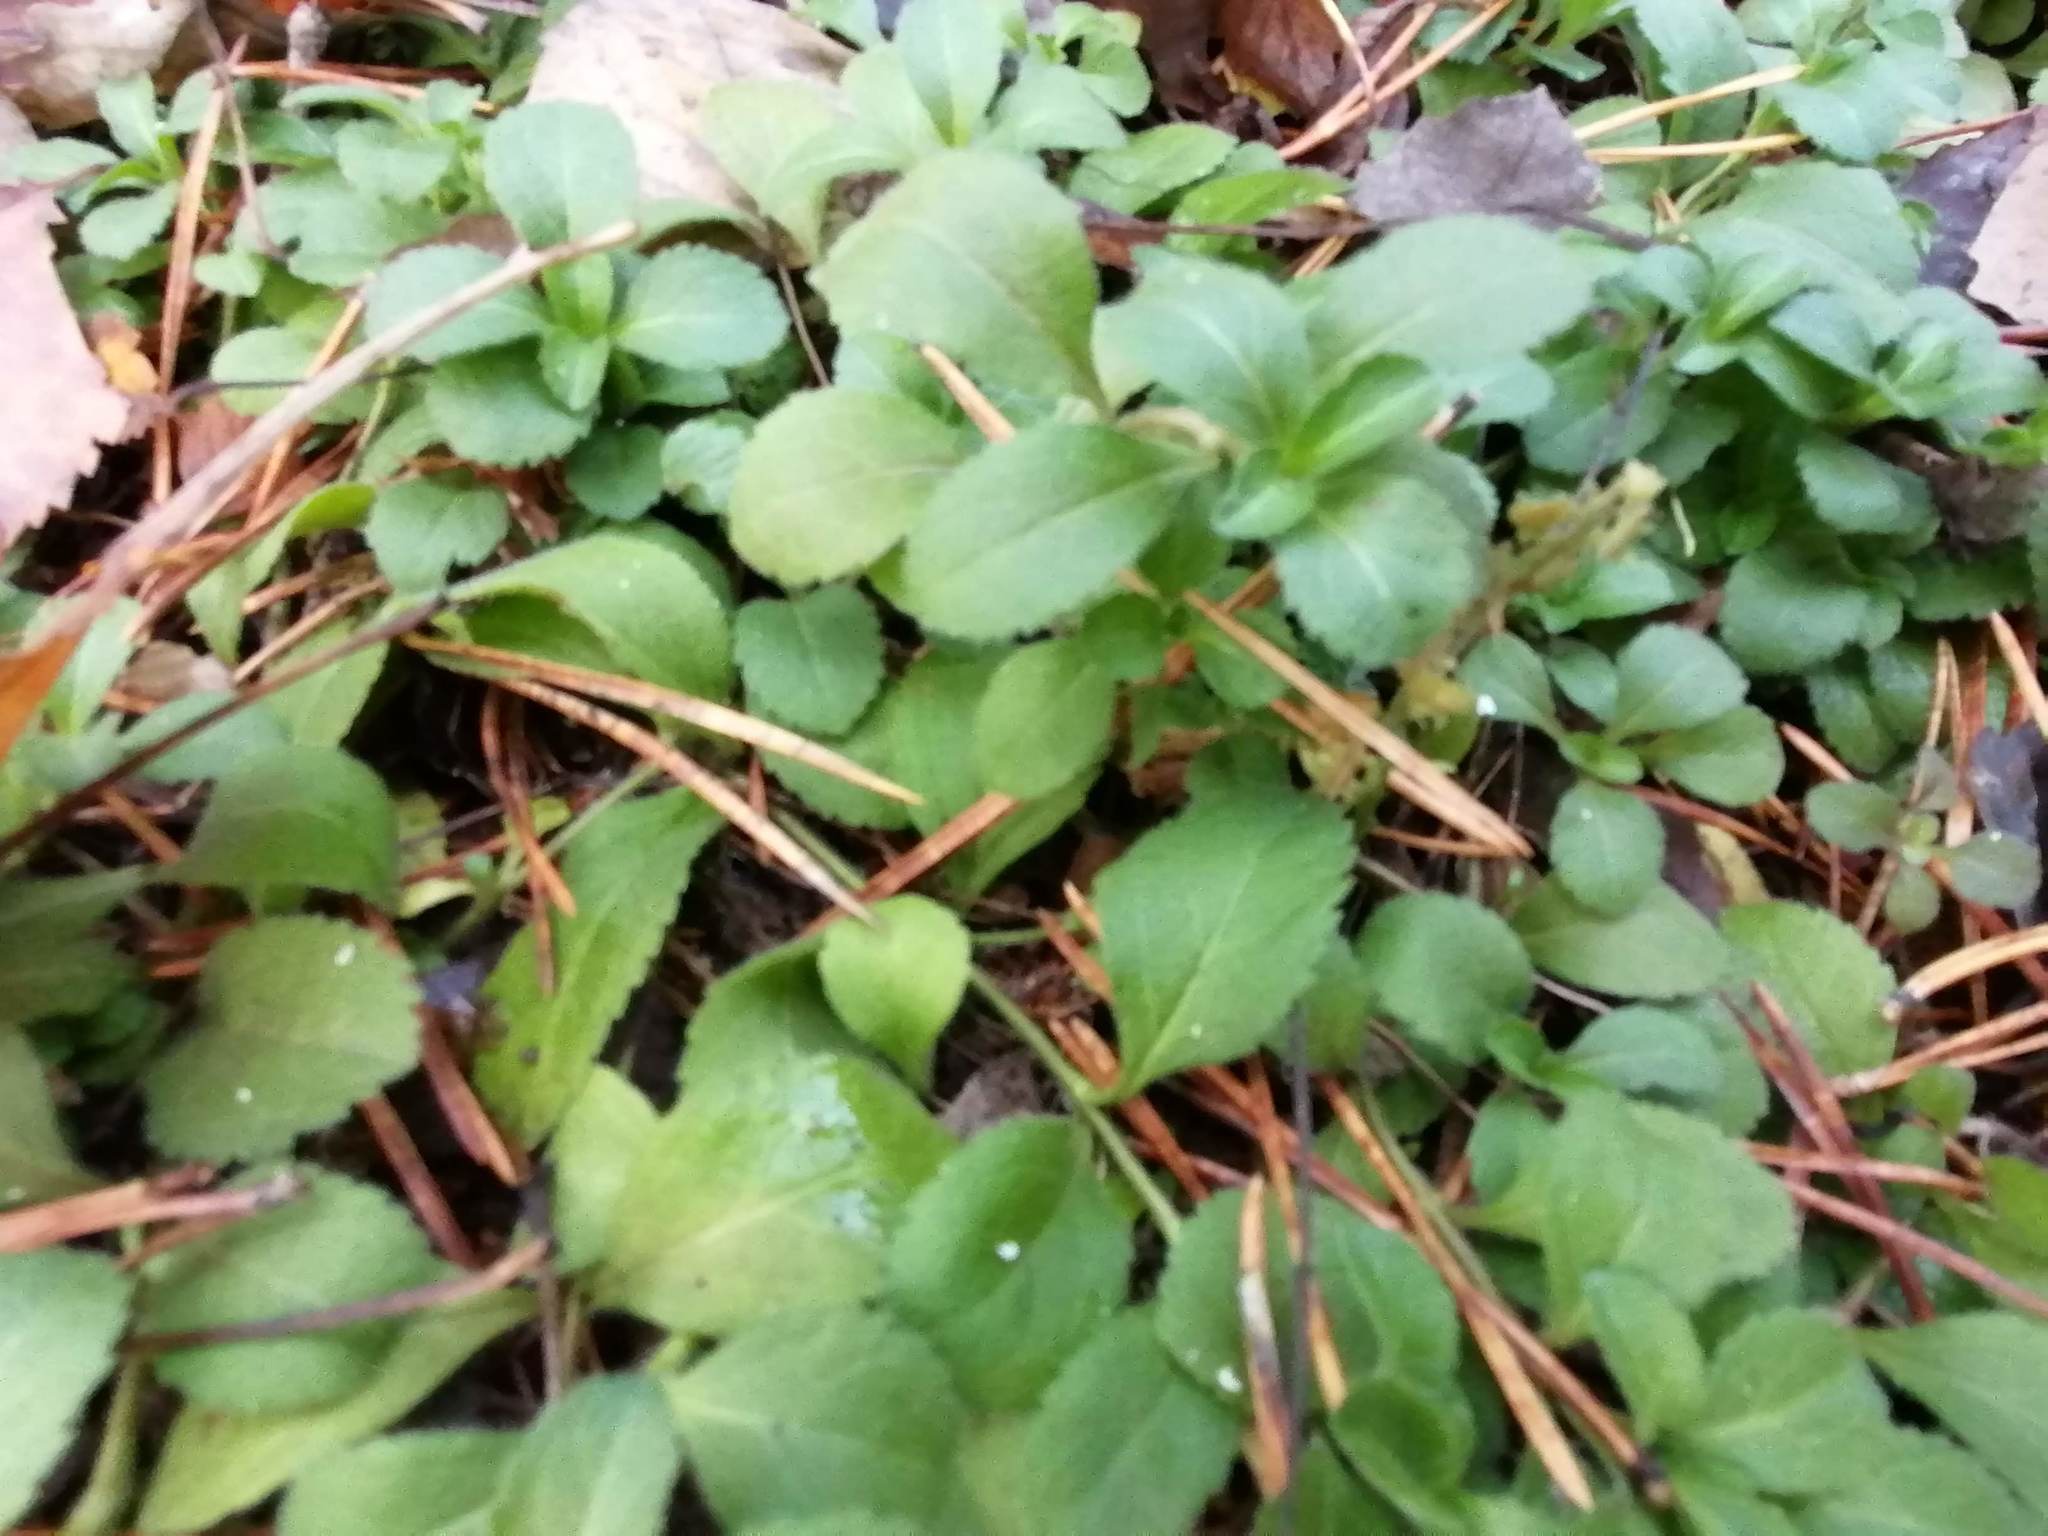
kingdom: Plantae
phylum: Tracheophyta
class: Magnoliopsida
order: Lamiales
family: Plantaginaceae
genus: Veronica
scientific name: Veronica officinalis
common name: Common speedwell
